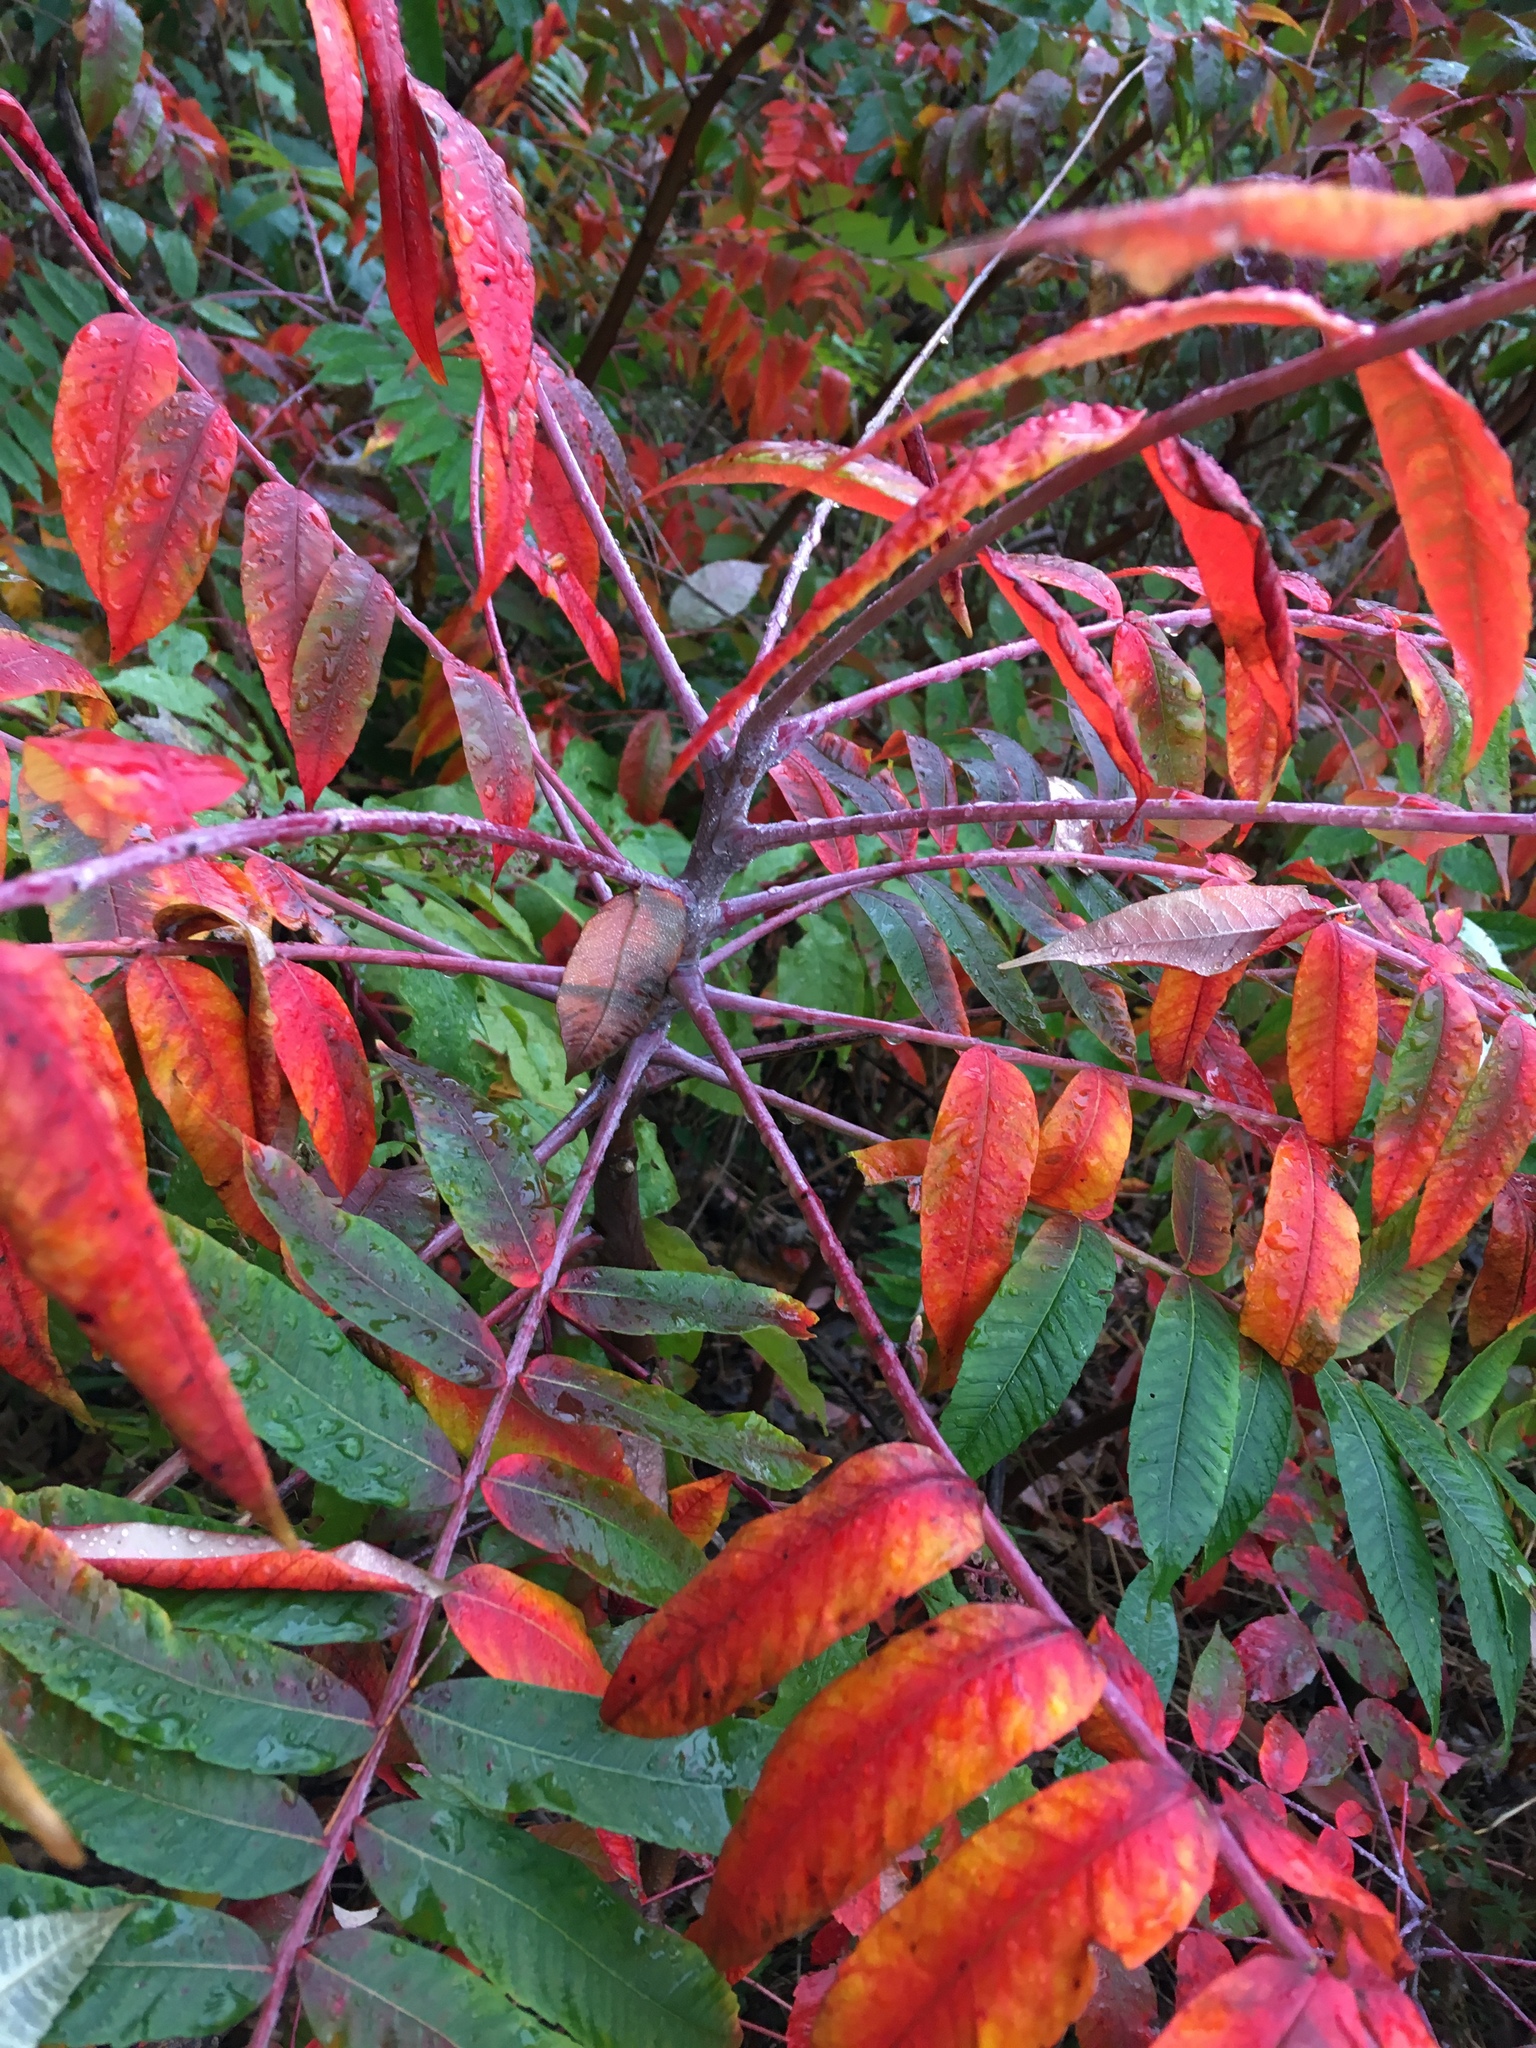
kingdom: Plantae
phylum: Tracheophyta
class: Magnoliopsida
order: Sapindales
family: Anacardiaceae
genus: Rhus
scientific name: Rhus glabra
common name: Scarlet sumac
